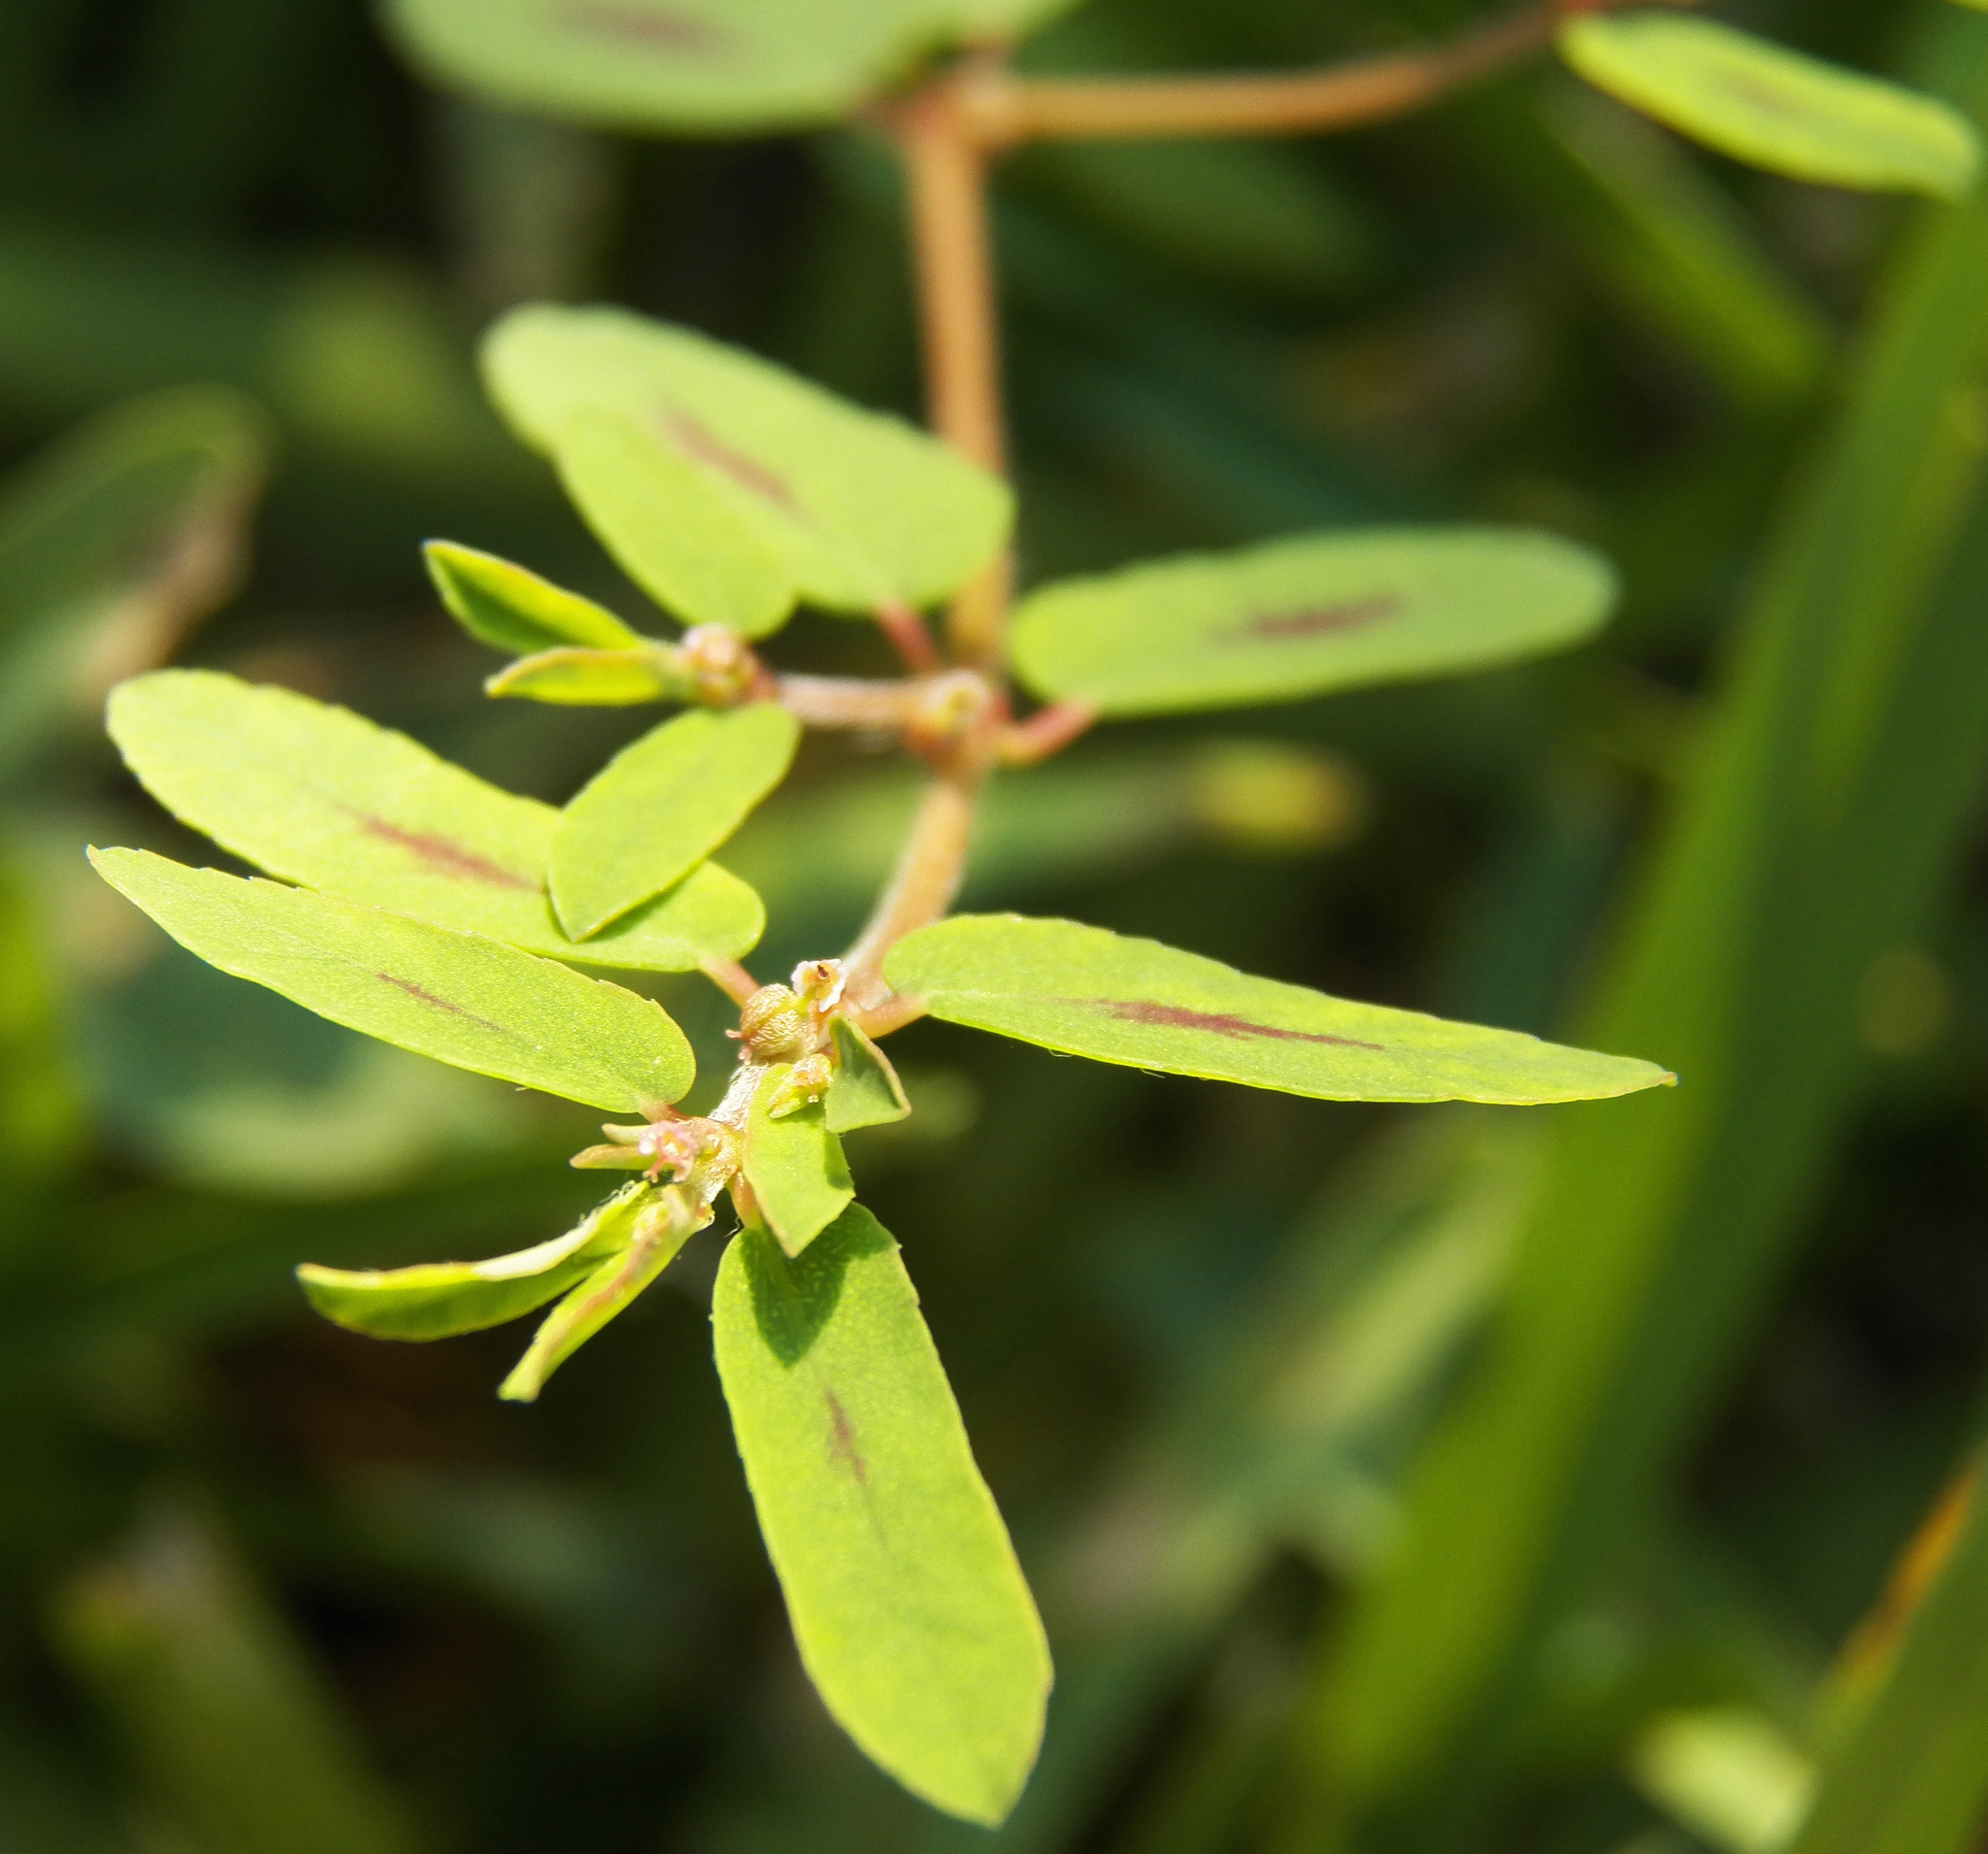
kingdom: Plantae
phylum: Tracheophyta
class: Magnoliopsida
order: Malpighiales
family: Euphorbiaceae
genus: Euphorbia
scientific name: Euphorbia maculata
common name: Spotted spurge
